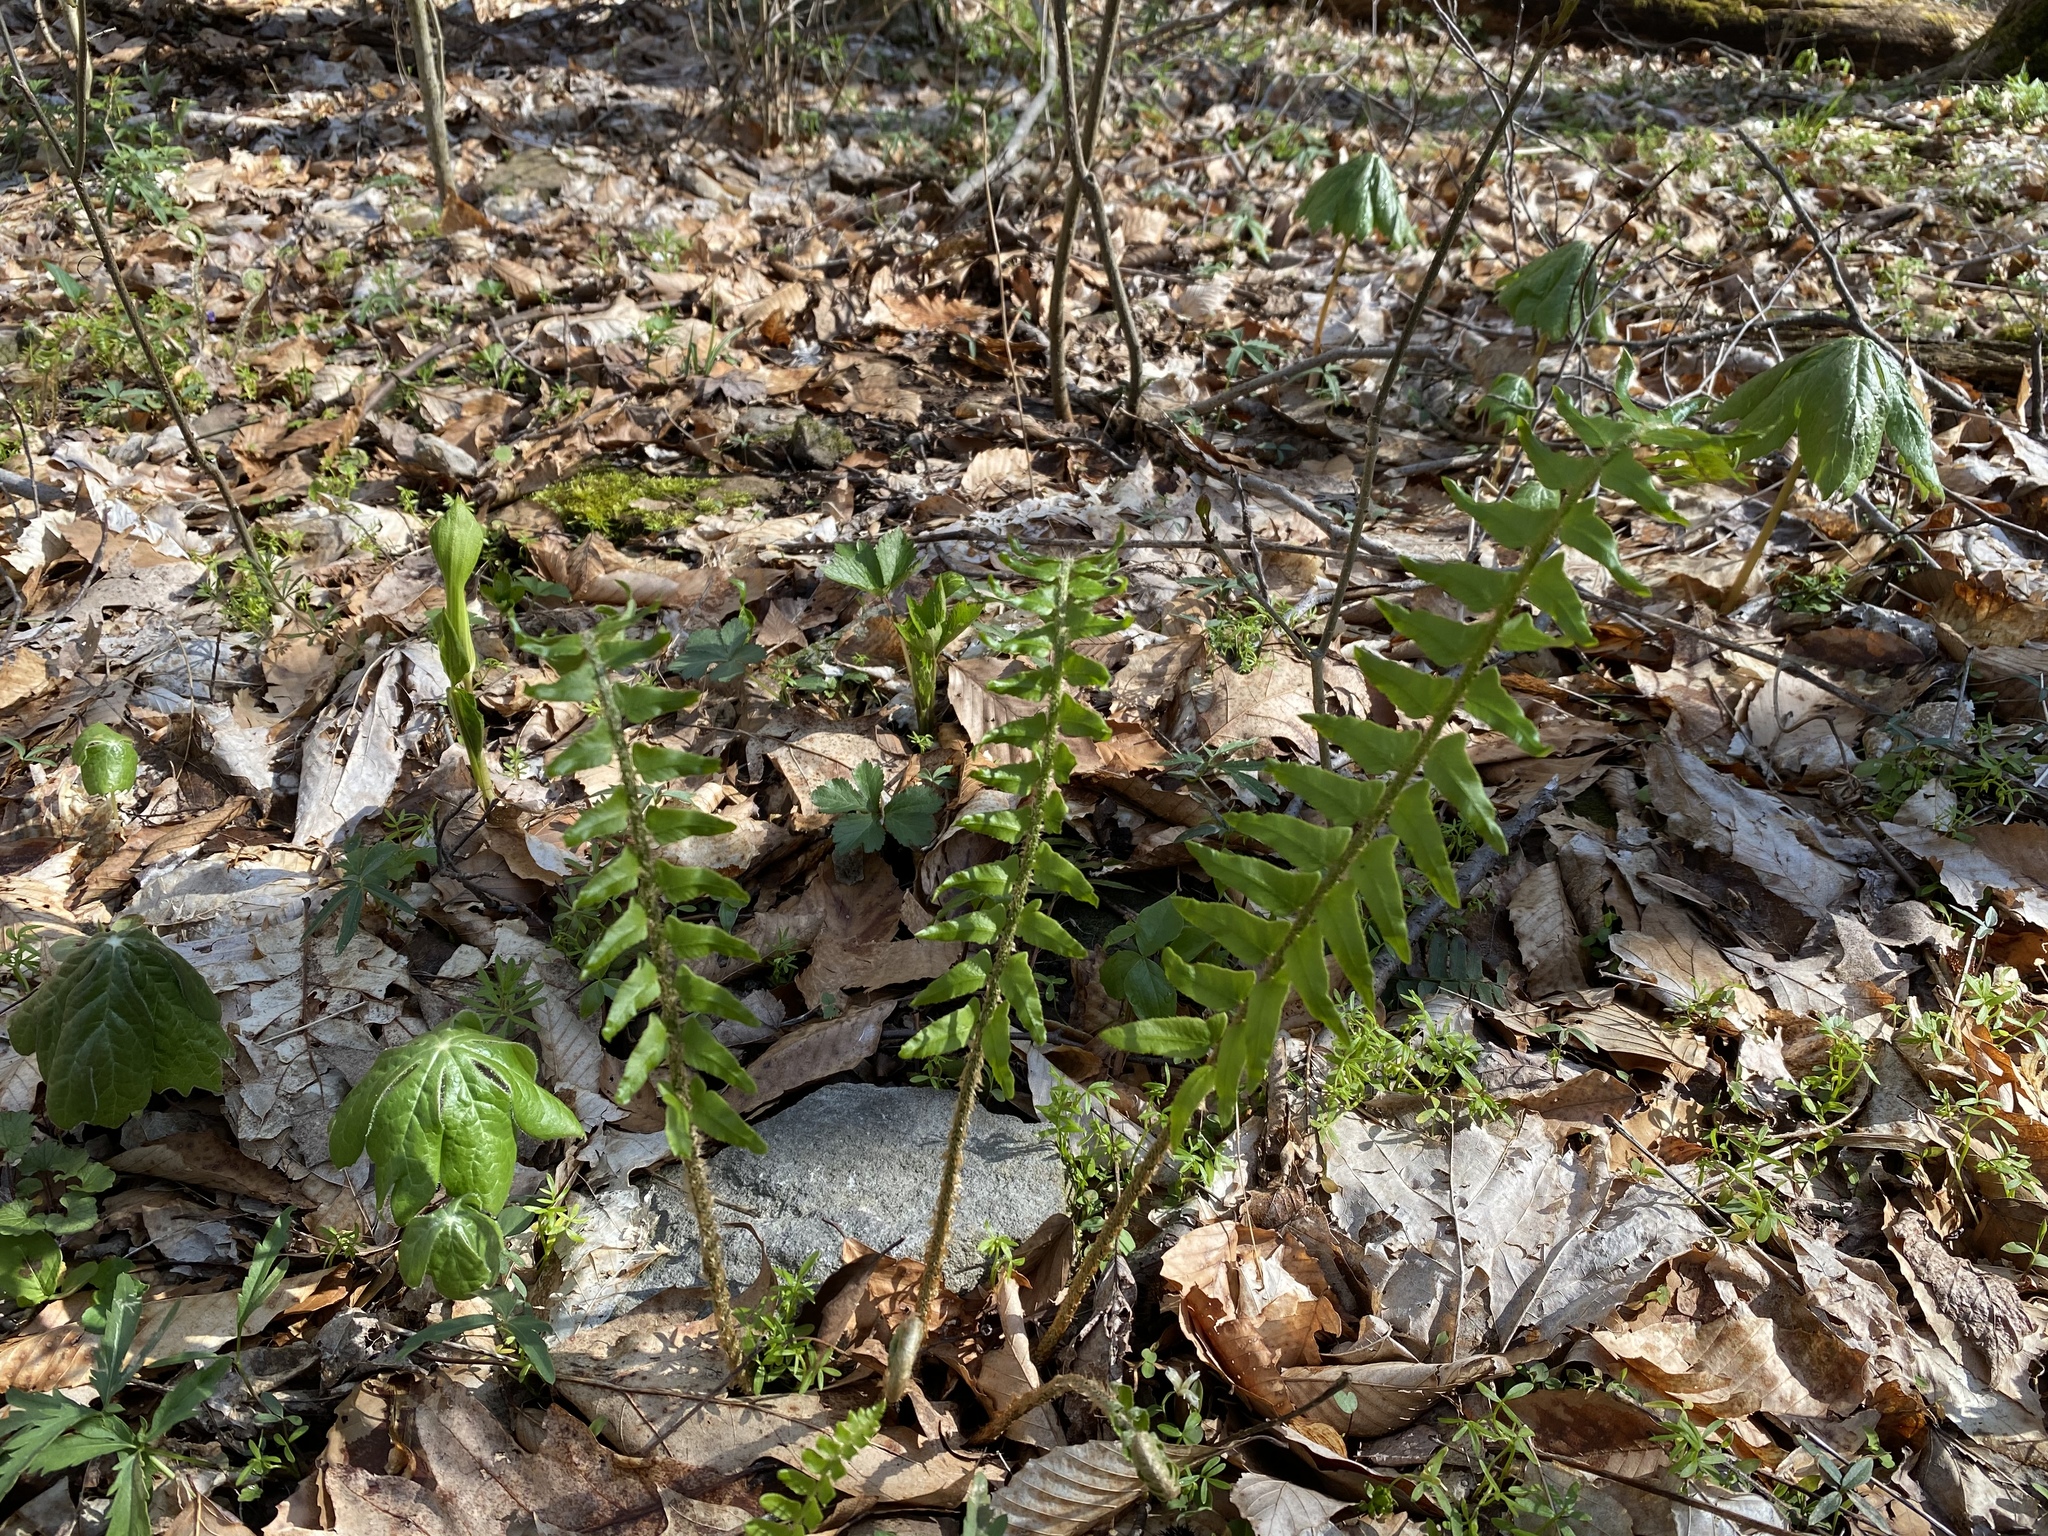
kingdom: Plantae
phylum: Tracheophyta
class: Polypodiopsida
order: Polypodiales
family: Dryopteridaceae
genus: Polystichum
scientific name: Polystichum acrostichoides
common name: Christmas fern
